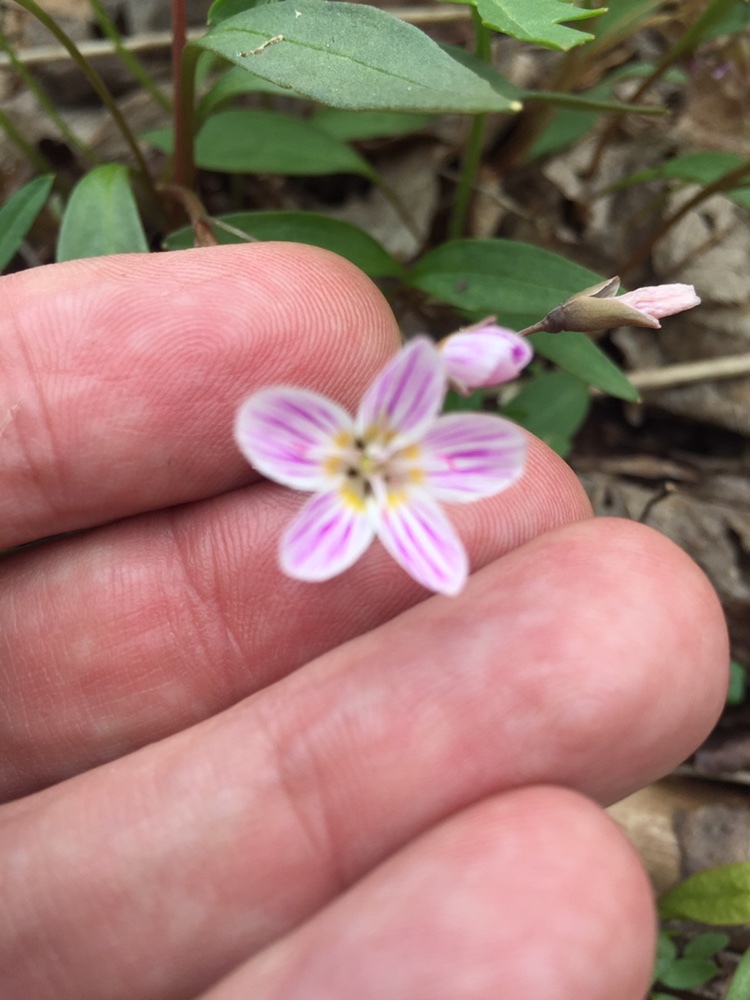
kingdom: Plantae
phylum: Tracheophyta
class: Magnoliopsida
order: Caryophyllales
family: Montiaceae
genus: Claytonia
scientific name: Claytonia caroliniana
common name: Carolina spring beauty
